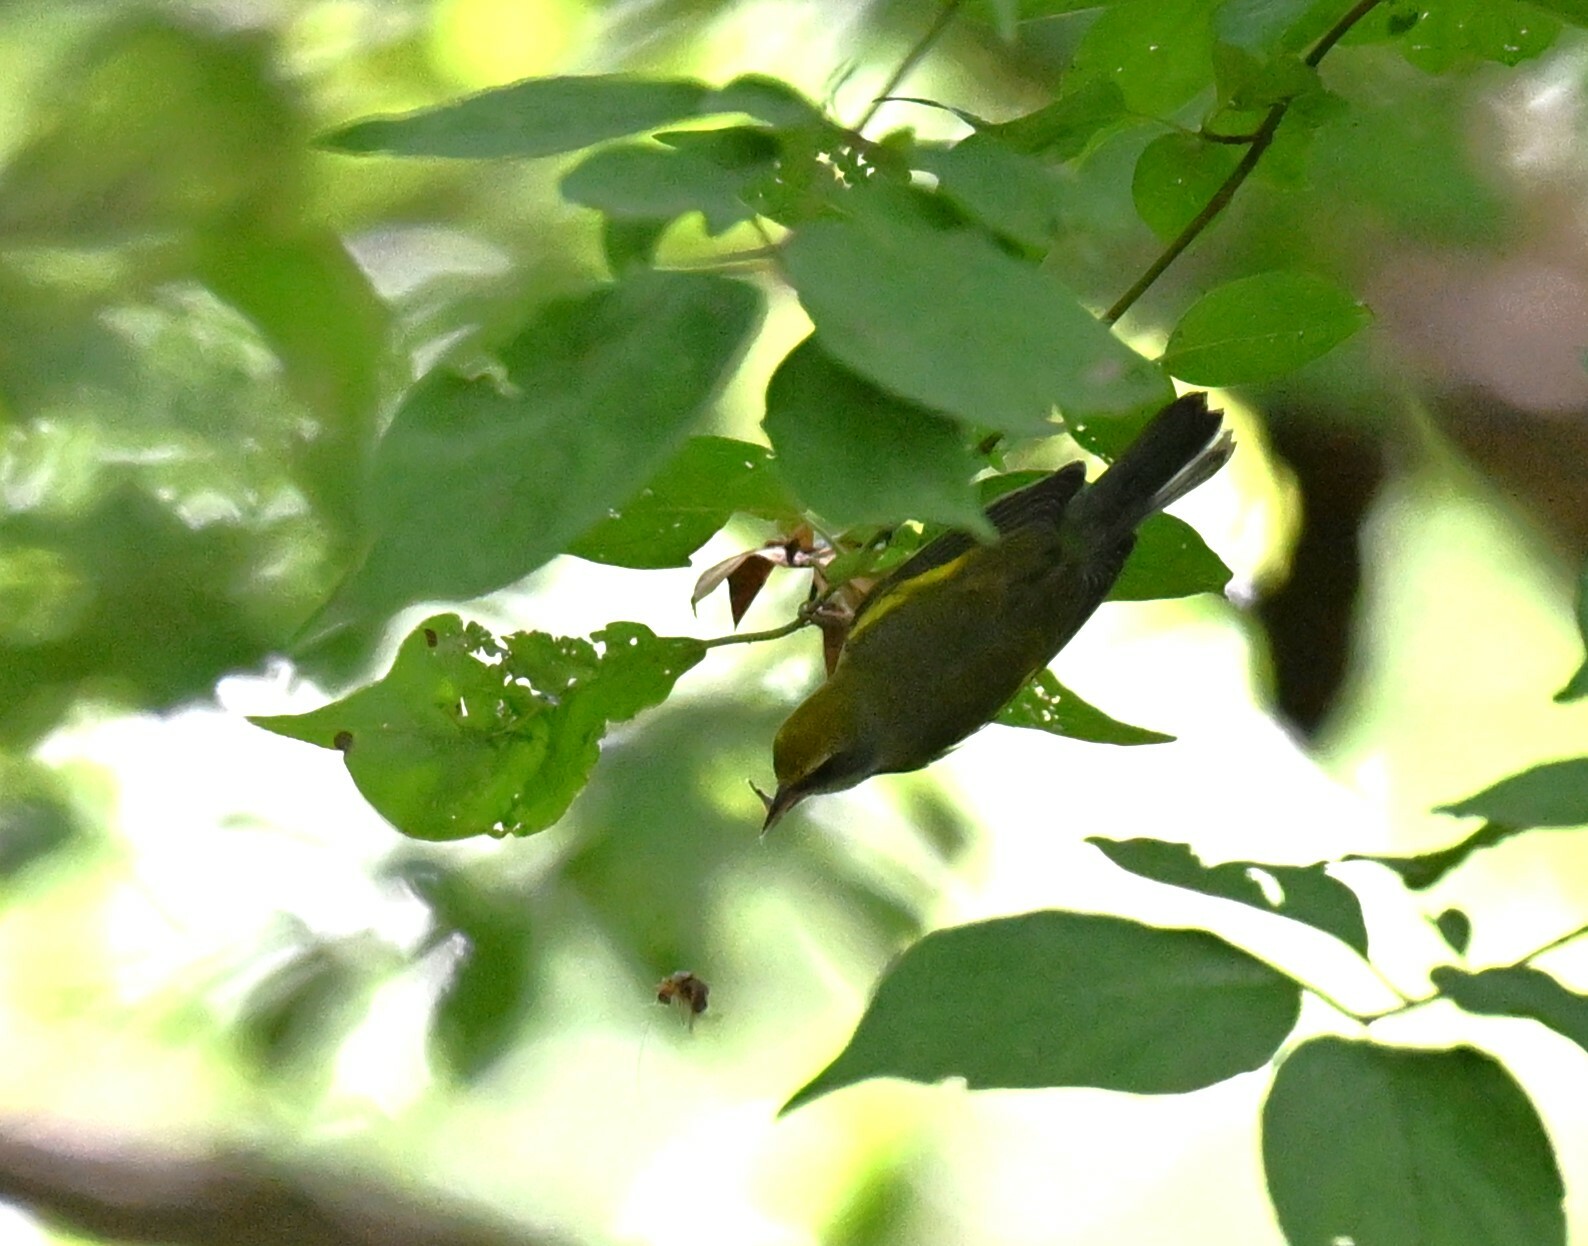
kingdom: Animalia
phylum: Chordata
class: Aves
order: Passeriformes
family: Parulidae
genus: Vermivora
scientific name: Vermivora chrysoptera
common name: Golden-winged warbler
